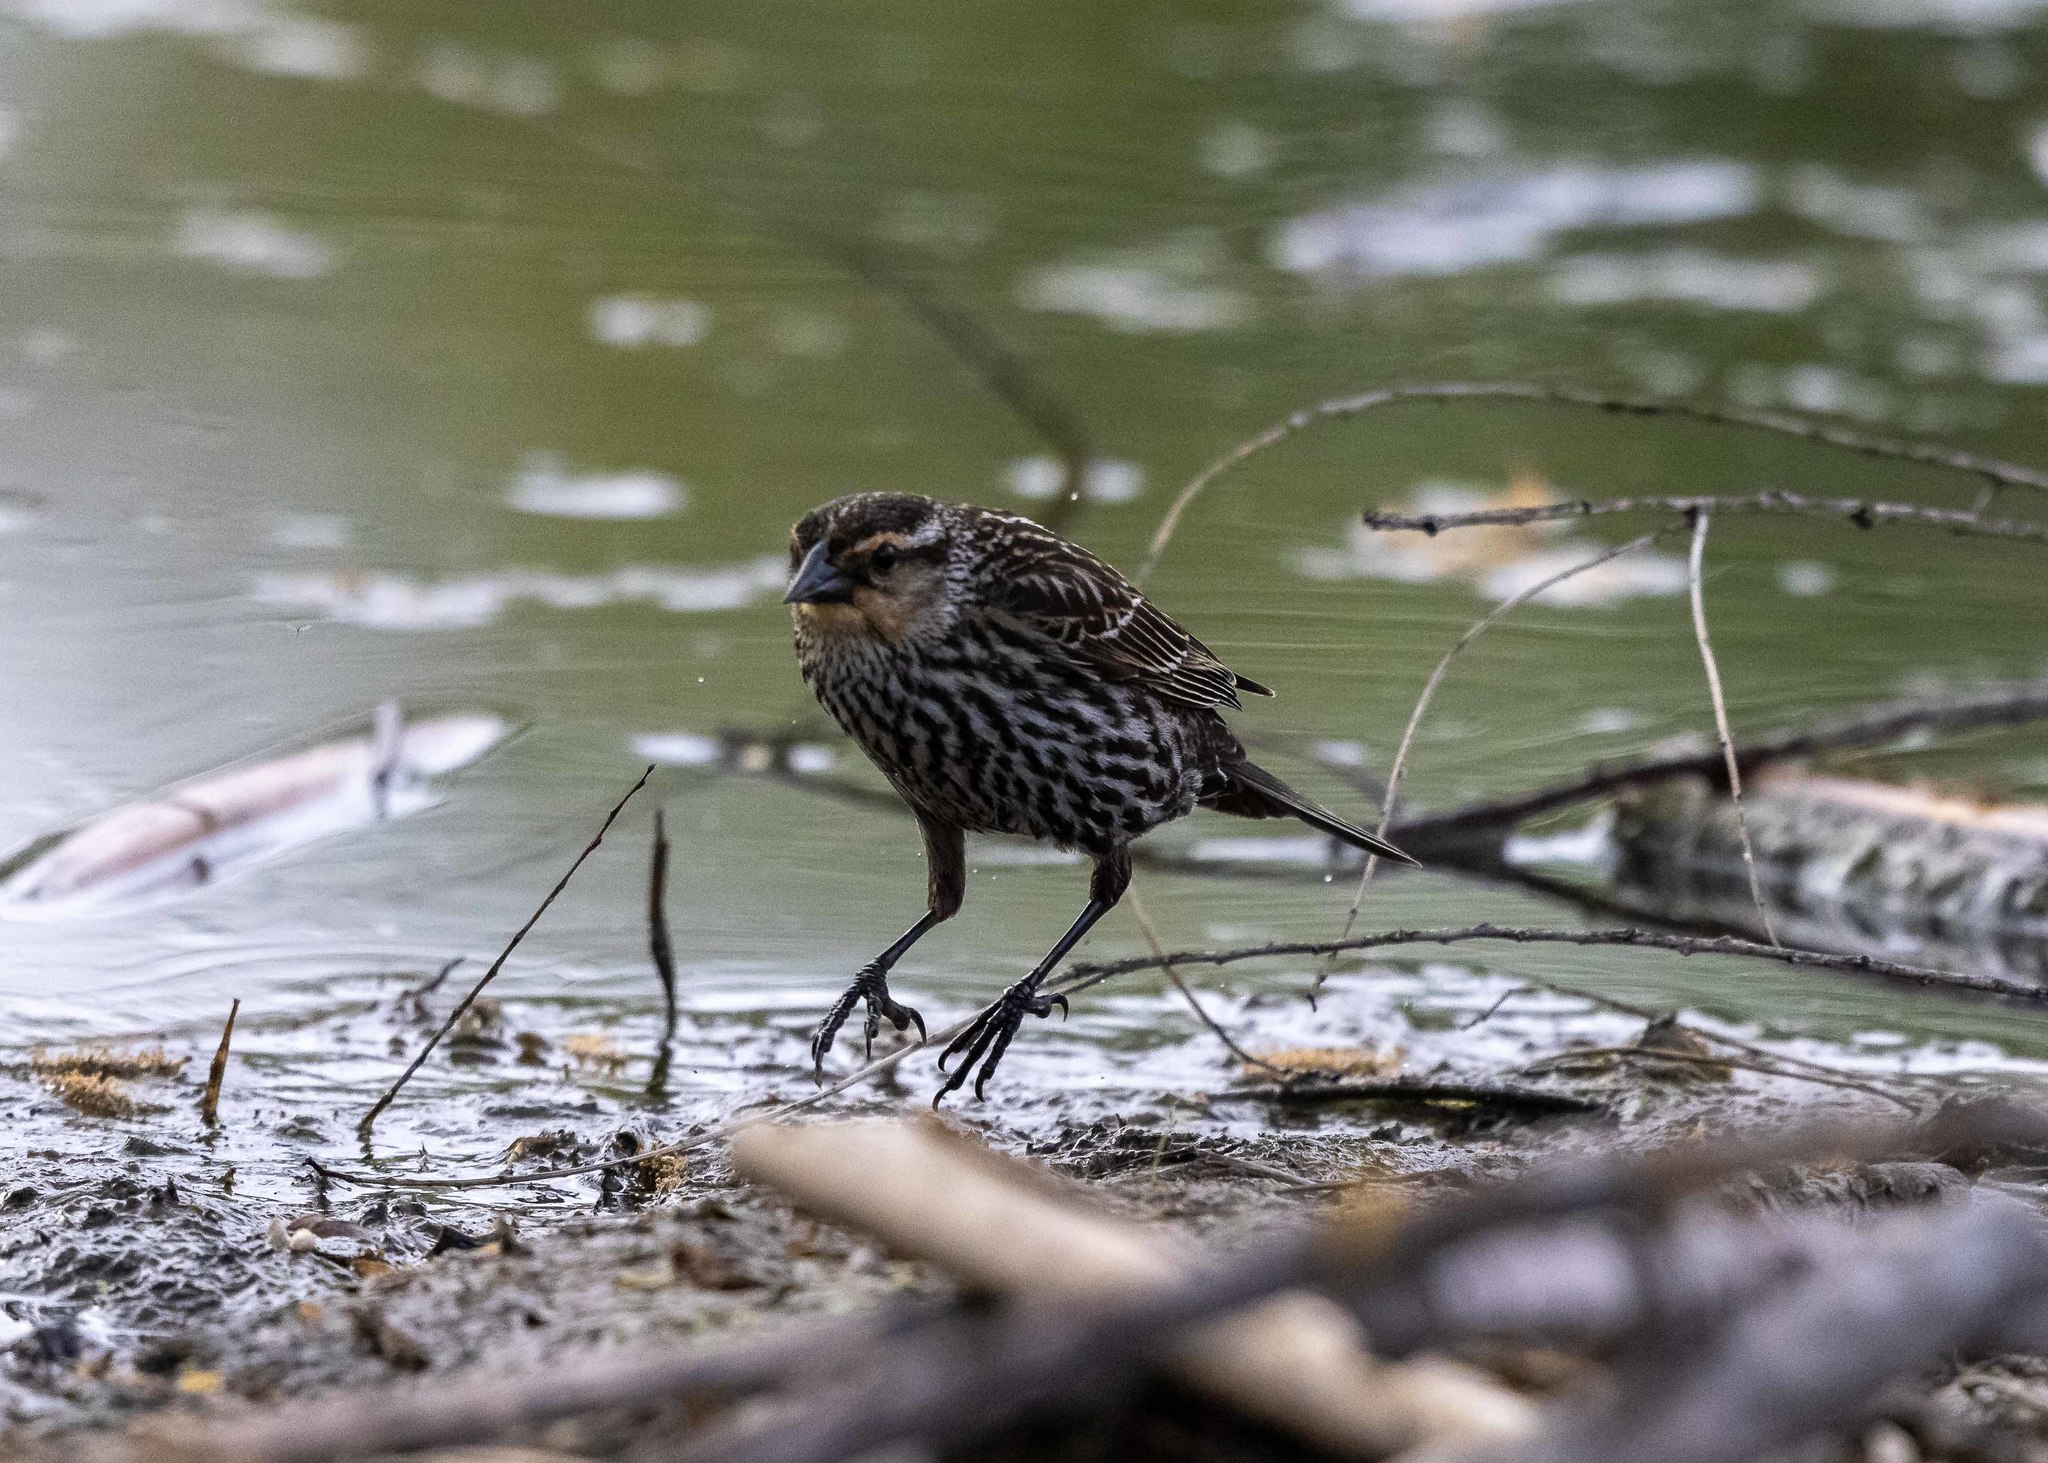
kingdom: Animalia
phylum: Chordata
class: Aves
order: Passeriformes
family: Icteridae
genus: Agelaius
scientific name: Agelaius phoeniceus
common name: Red-winged blackbird
